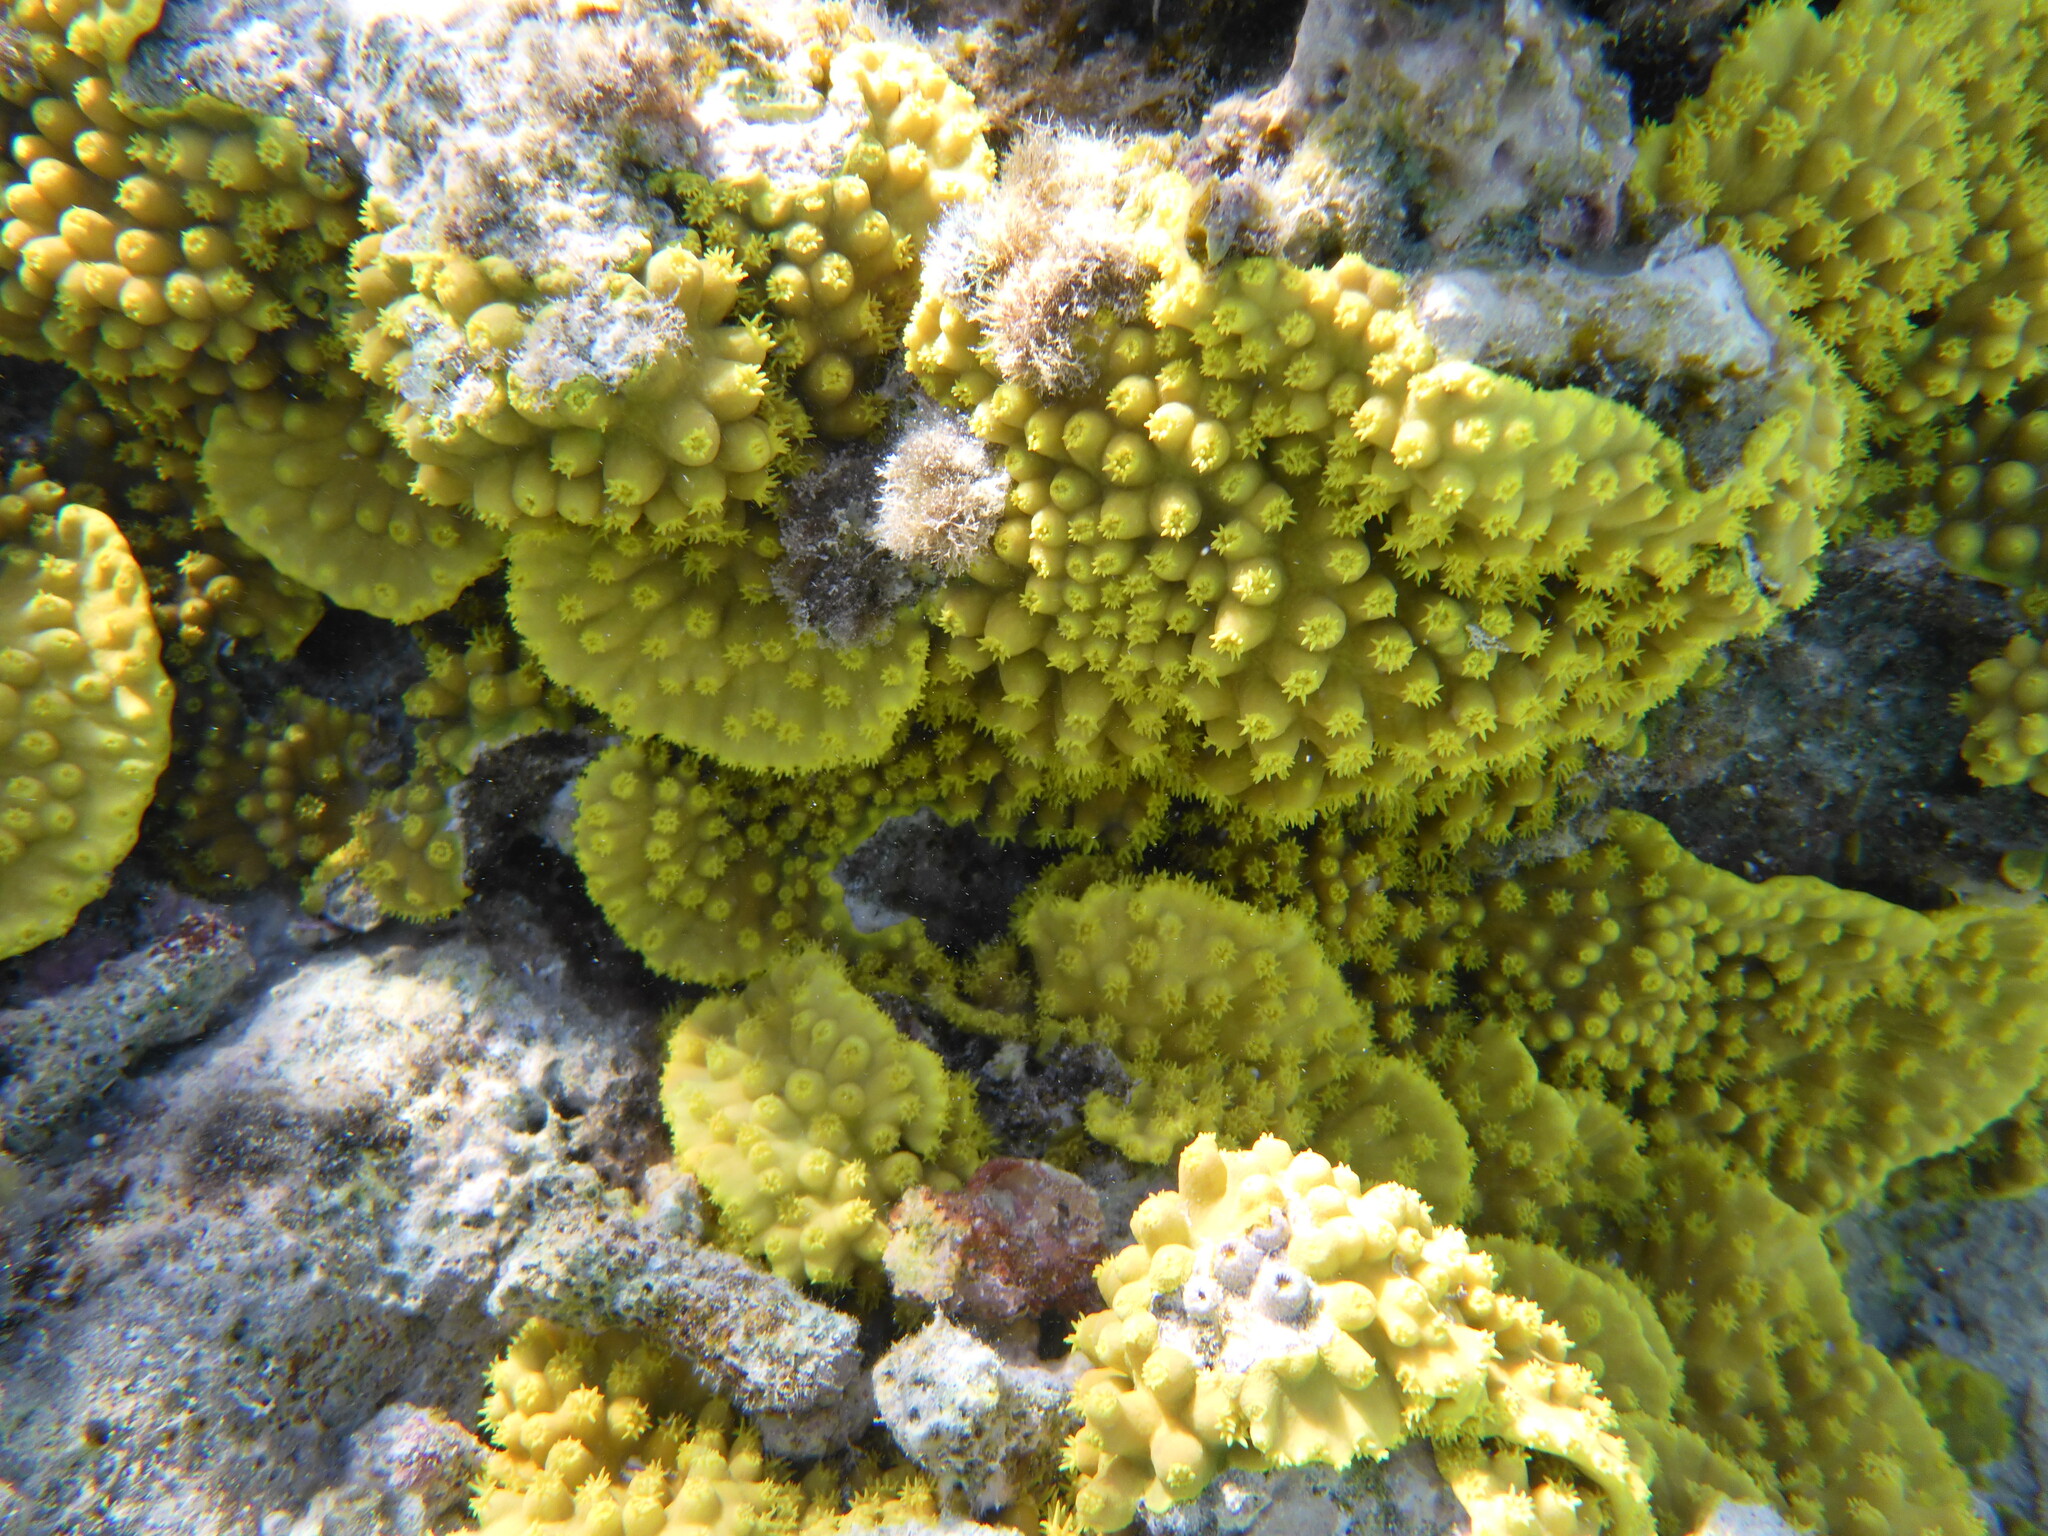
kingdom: Animalia
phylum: Cnidaria
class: Anthozoa
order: Scleractinia
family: Dendrophylliidae
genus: Turbinaria
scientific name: Turbinaria reniformis
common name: Disc coral
